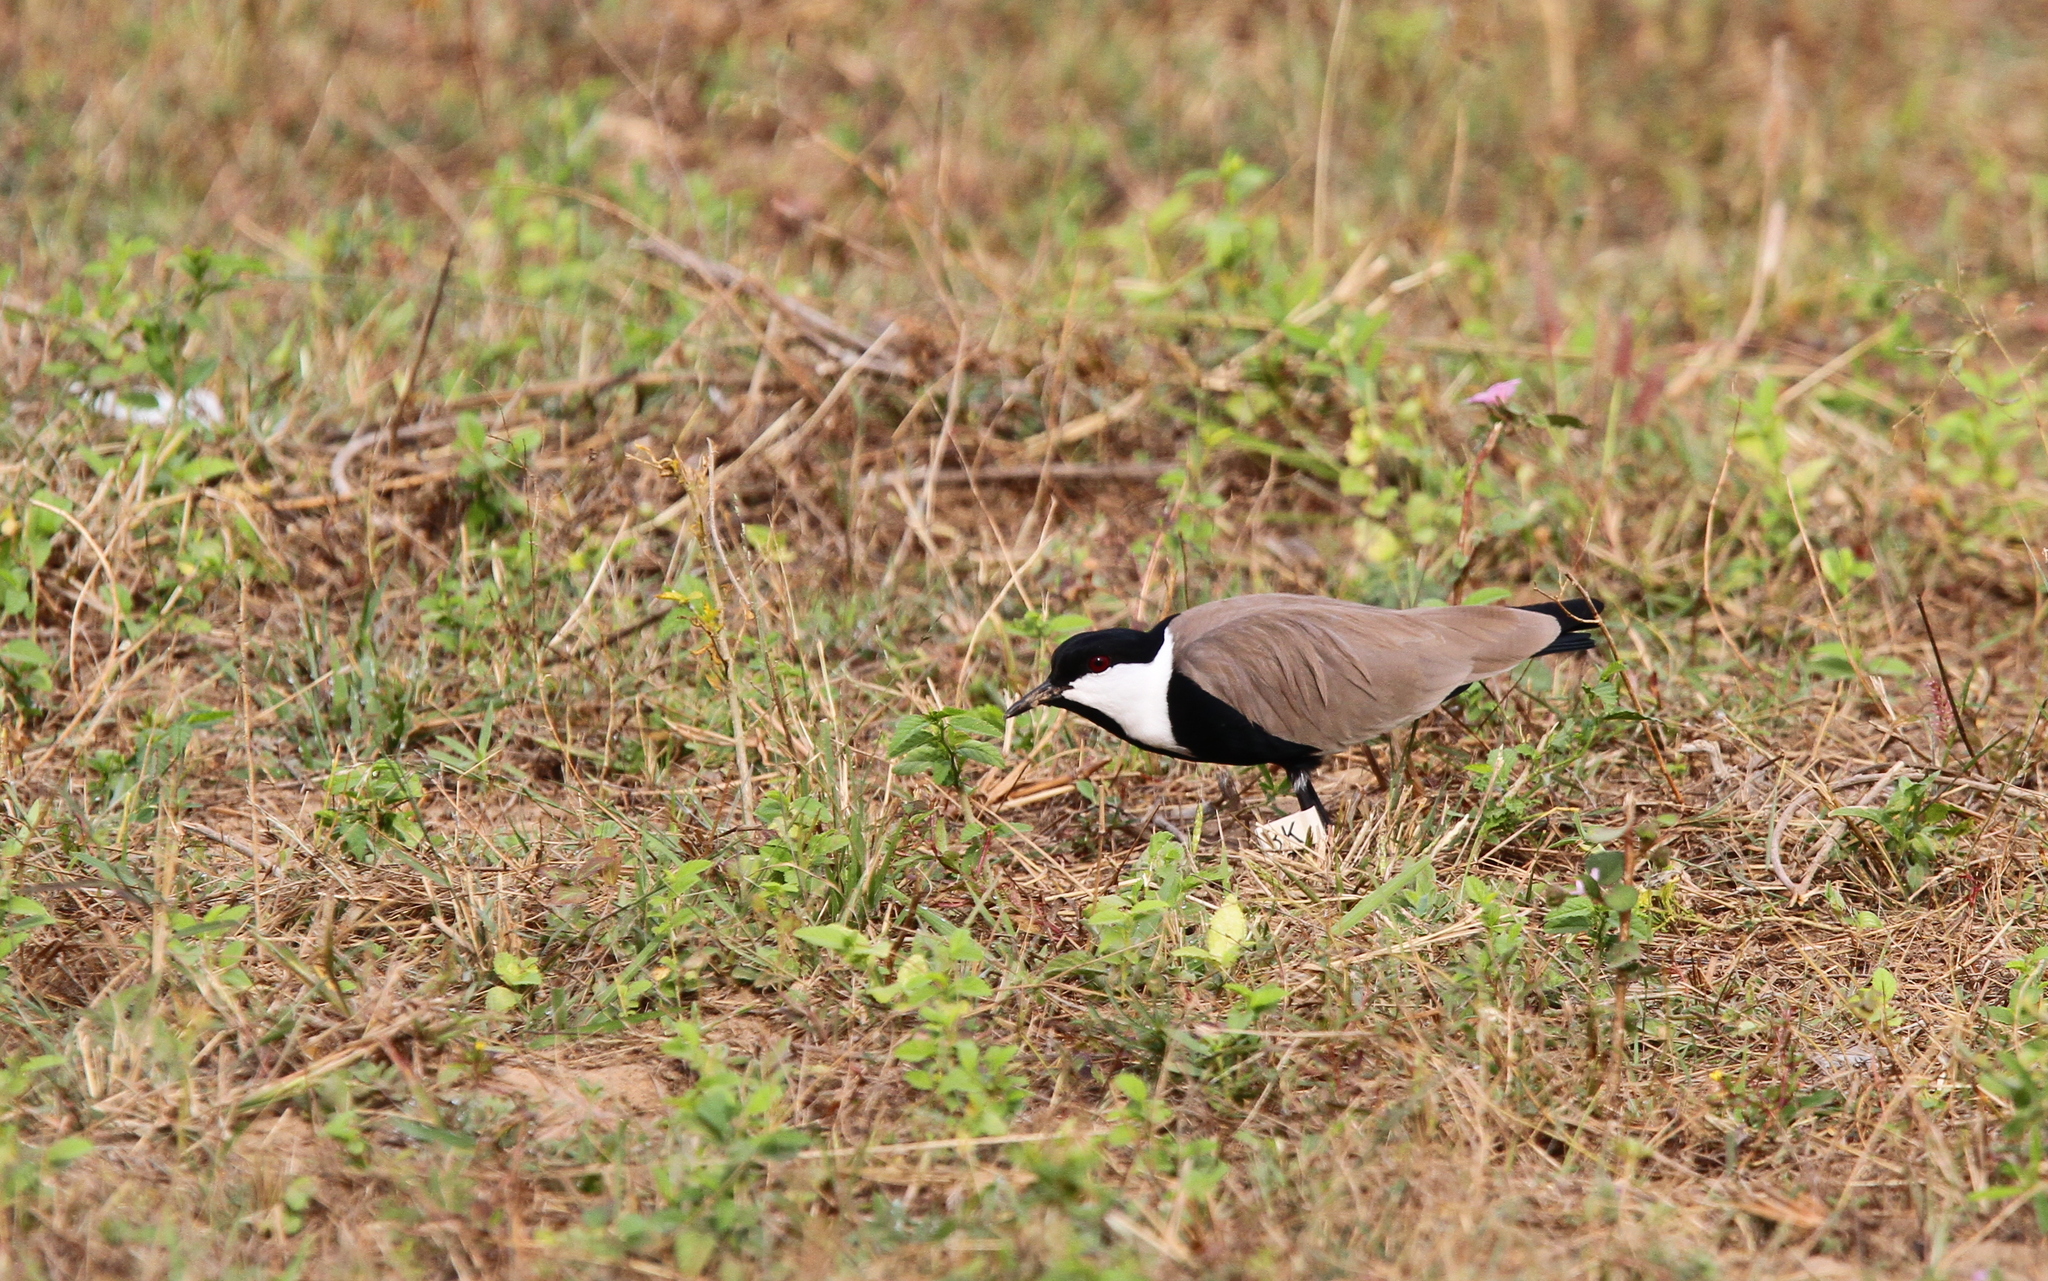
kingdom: Animalia
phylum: Chordata
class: Aves
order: Charadriiformes
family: Charadriidae
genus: Vanellus
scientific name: Vanellus spinosus
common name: Spur-winged lapwing
